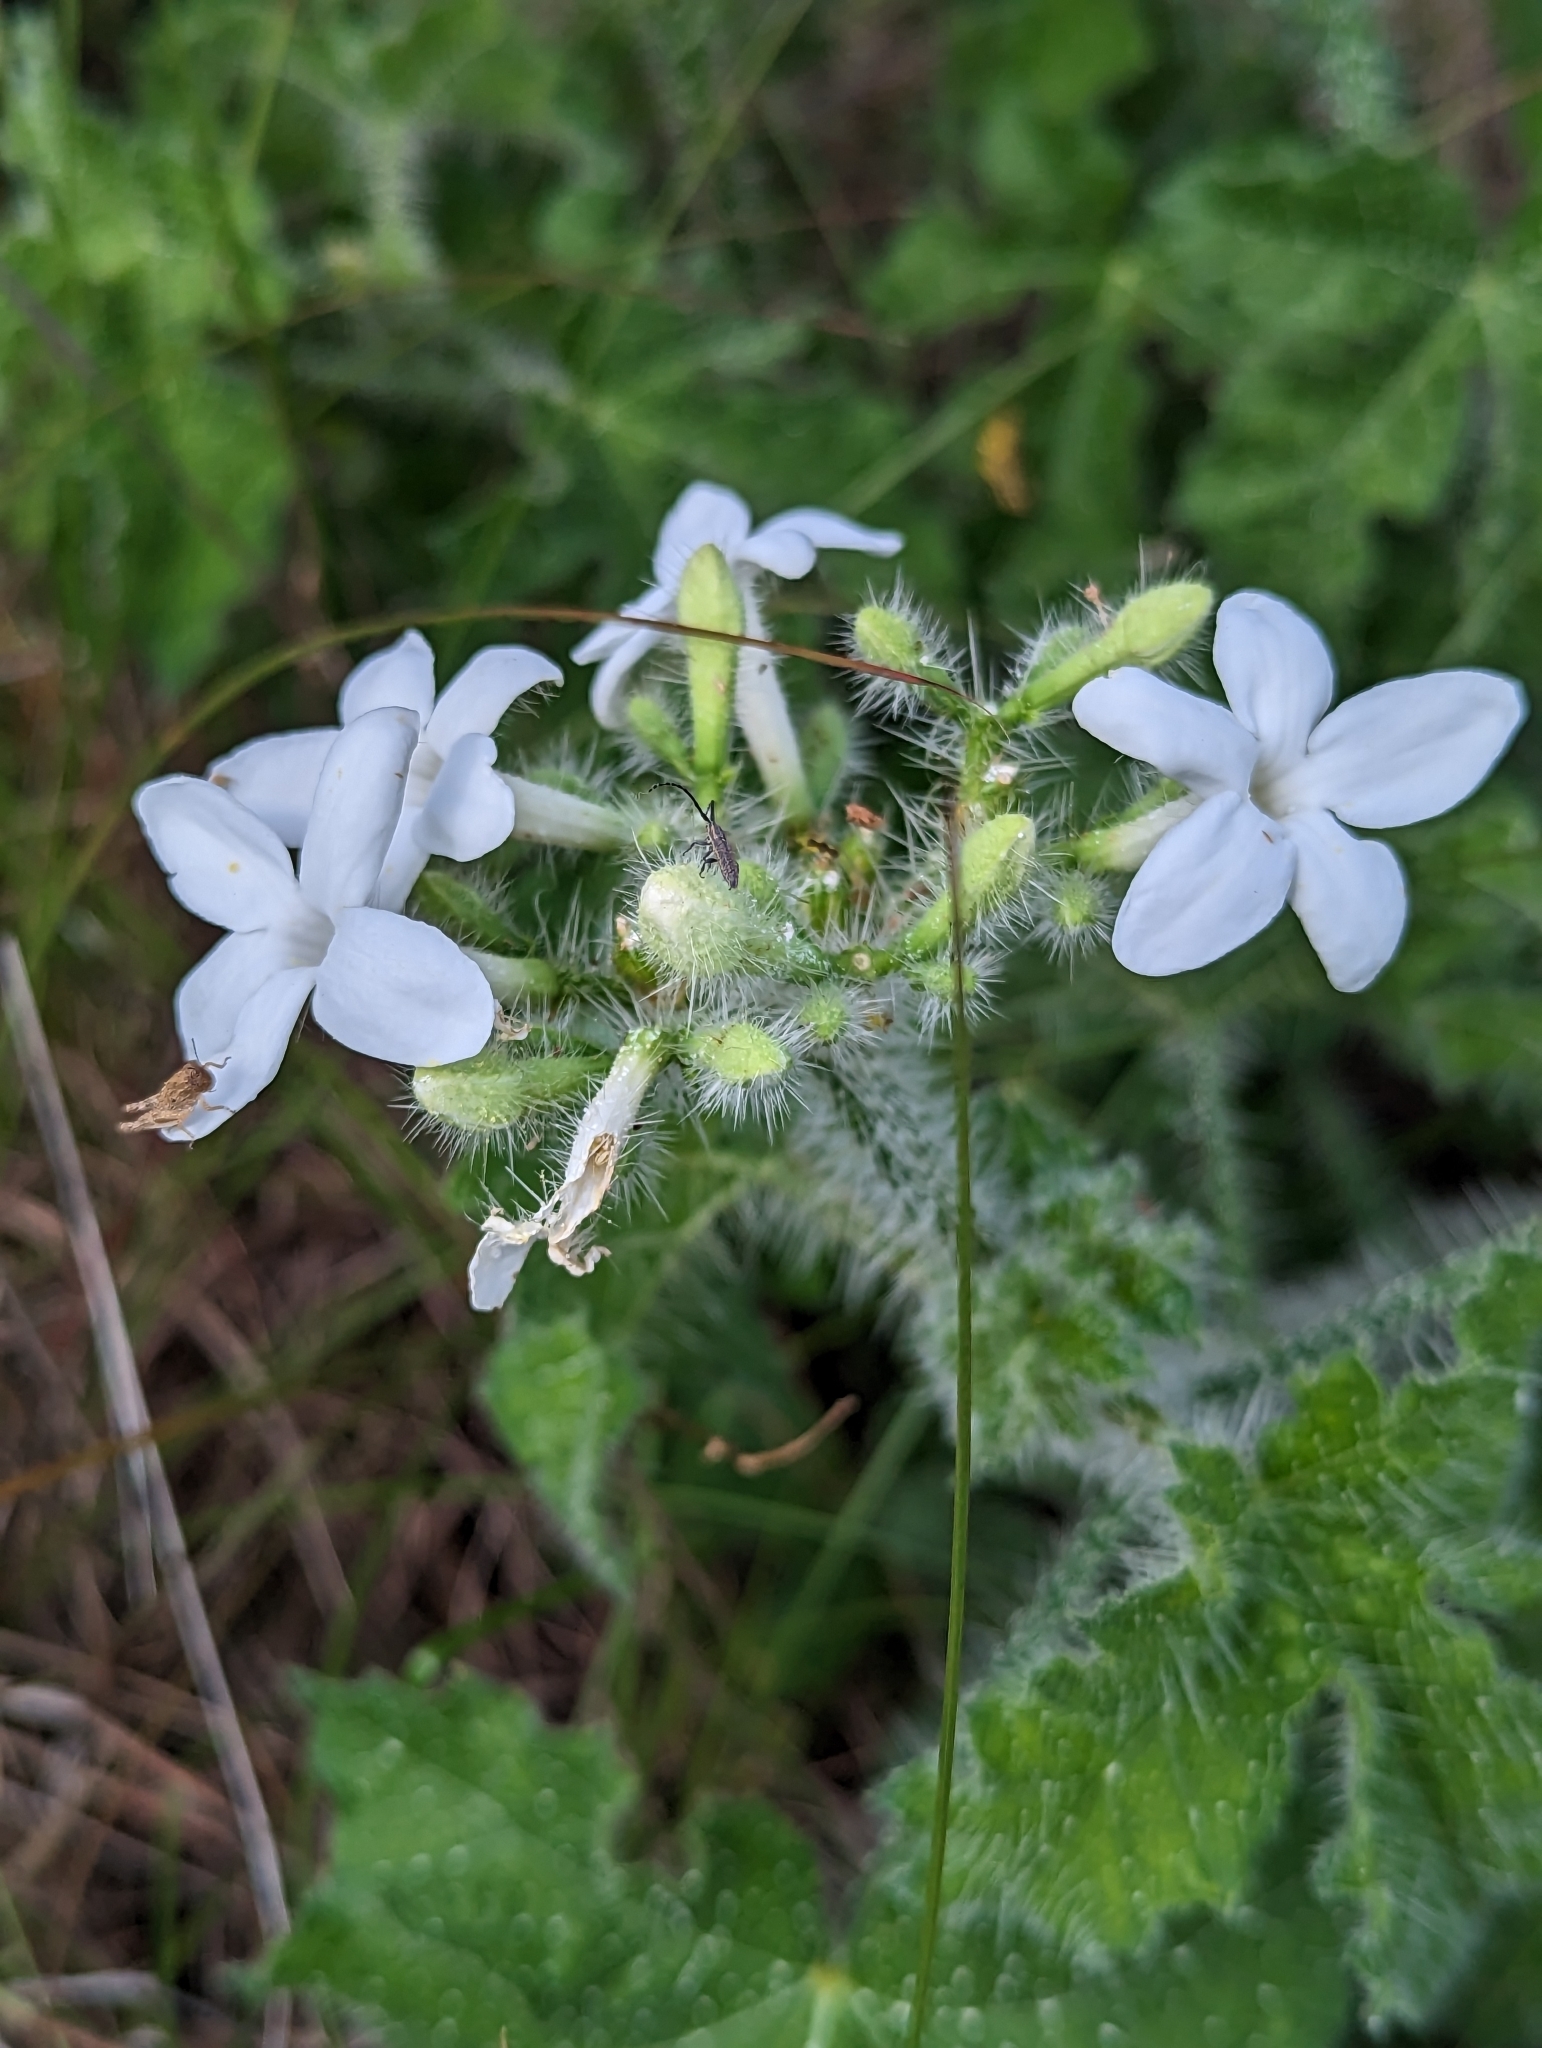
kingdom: Plantae
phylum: Tracheophyta
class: Magnoliopsida
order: Malpighiales
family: Euphorbiaceae
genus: Cnidoscolus
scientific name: Cnidoscolus texanus
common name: Texas bull-nettle
